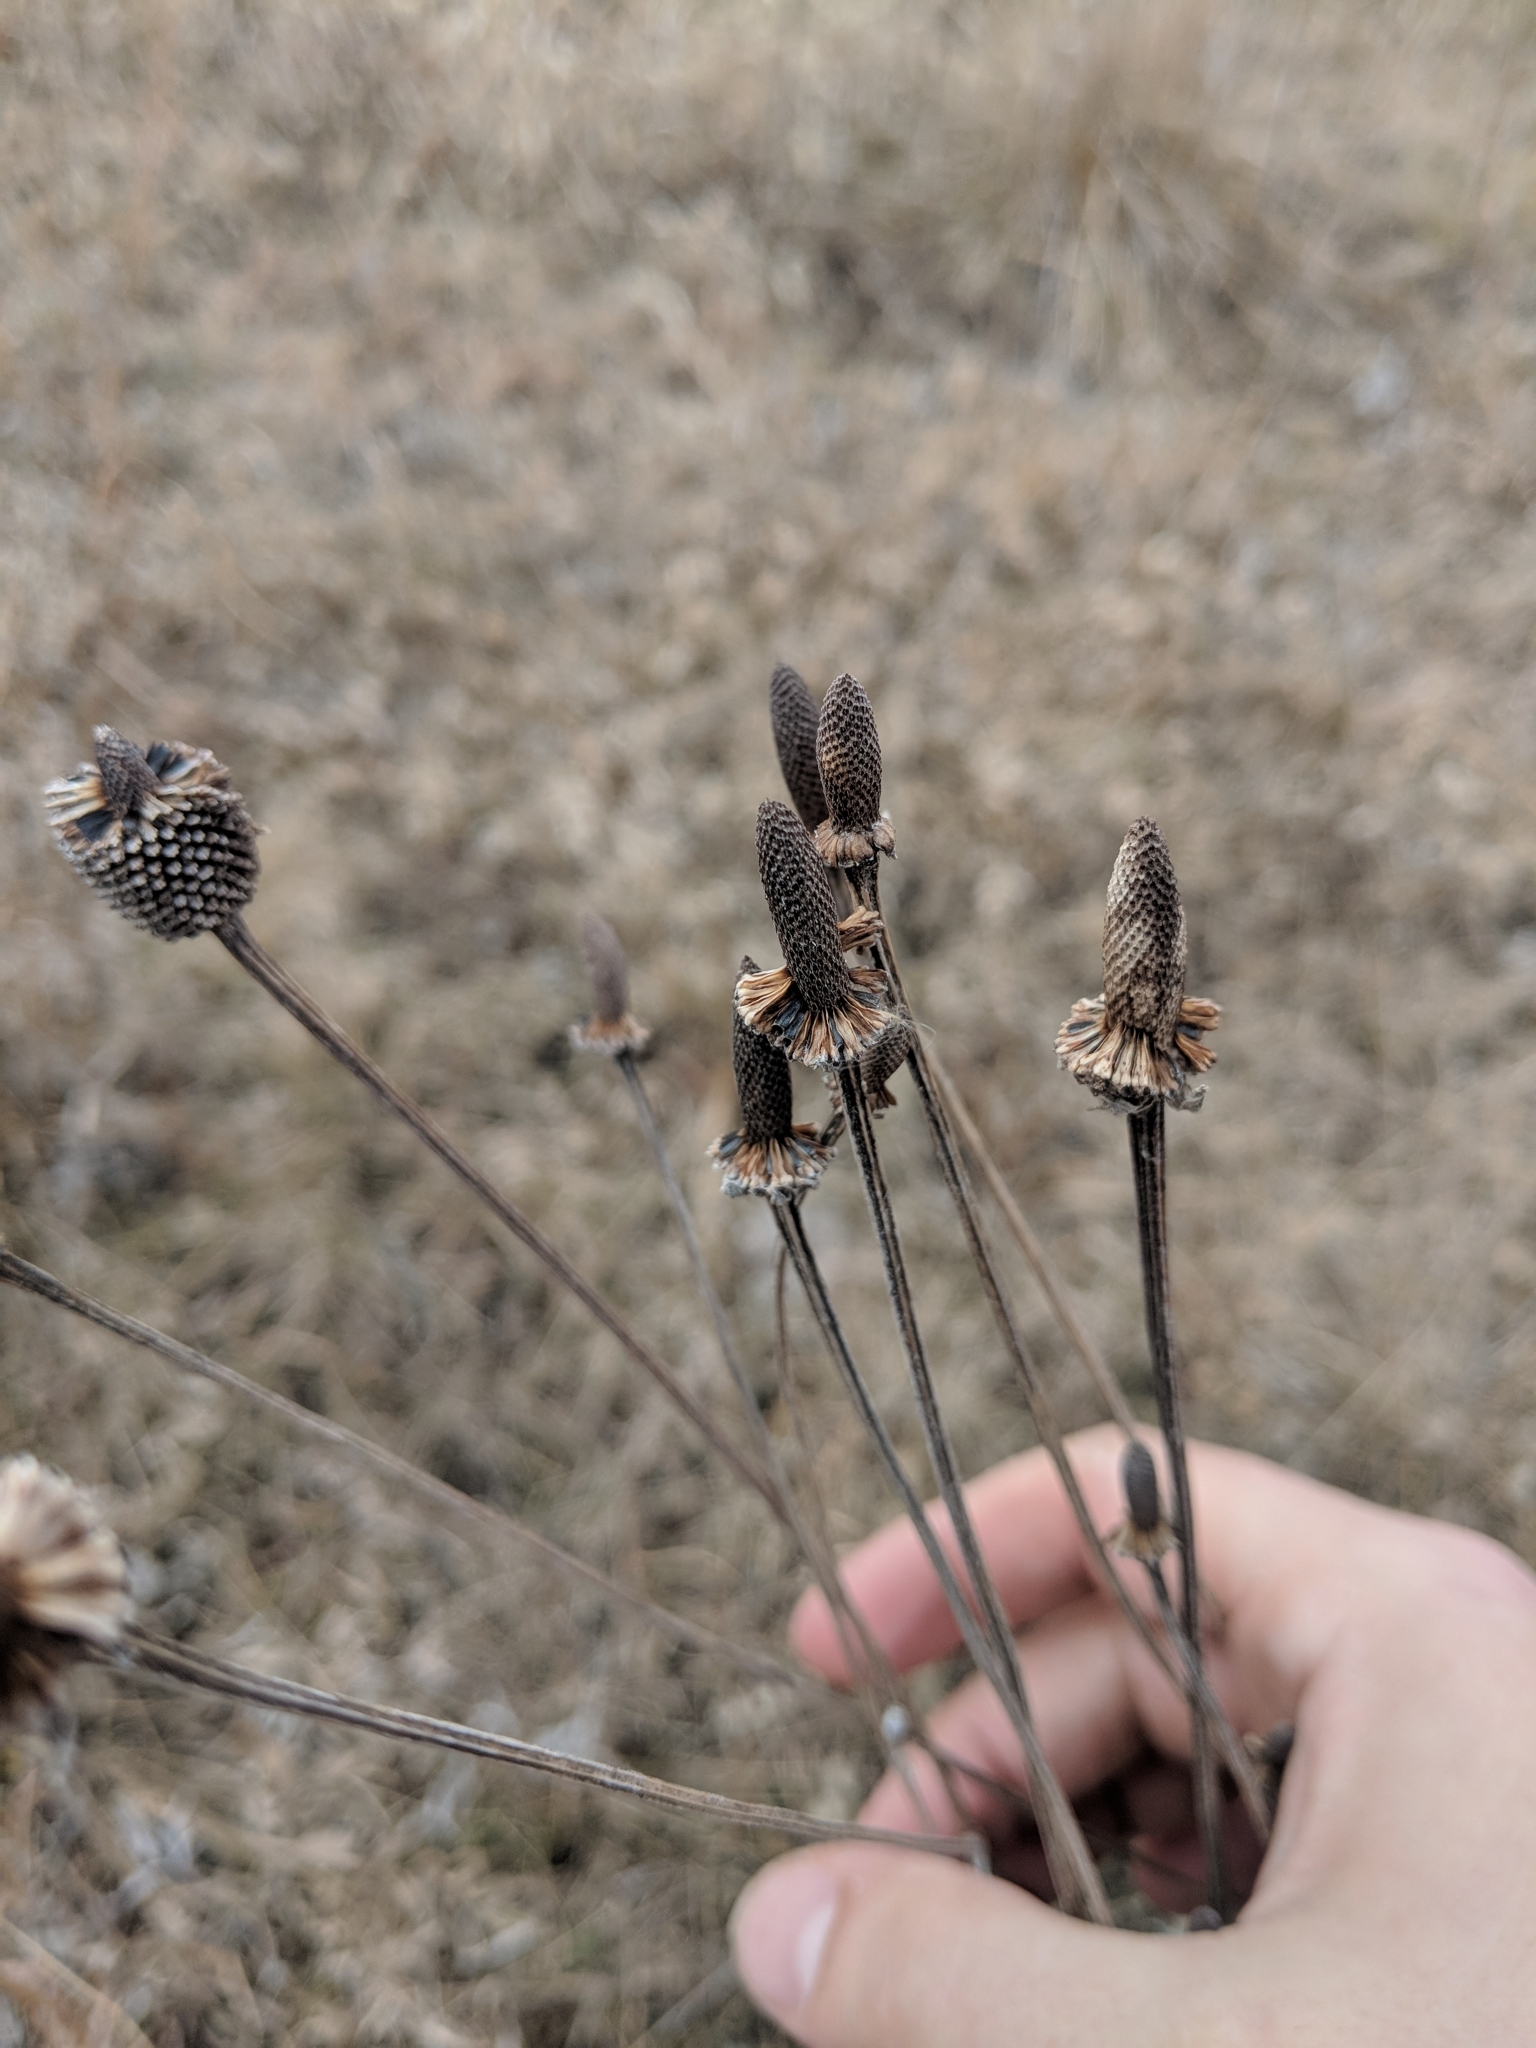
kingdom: Plantae
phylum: Tracheophyta
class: Magnoliopsida
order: Asterales
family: Asteraceae
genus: Ratibida
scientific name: Ratibida pinnata
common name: Drooping prairie-coneflower
